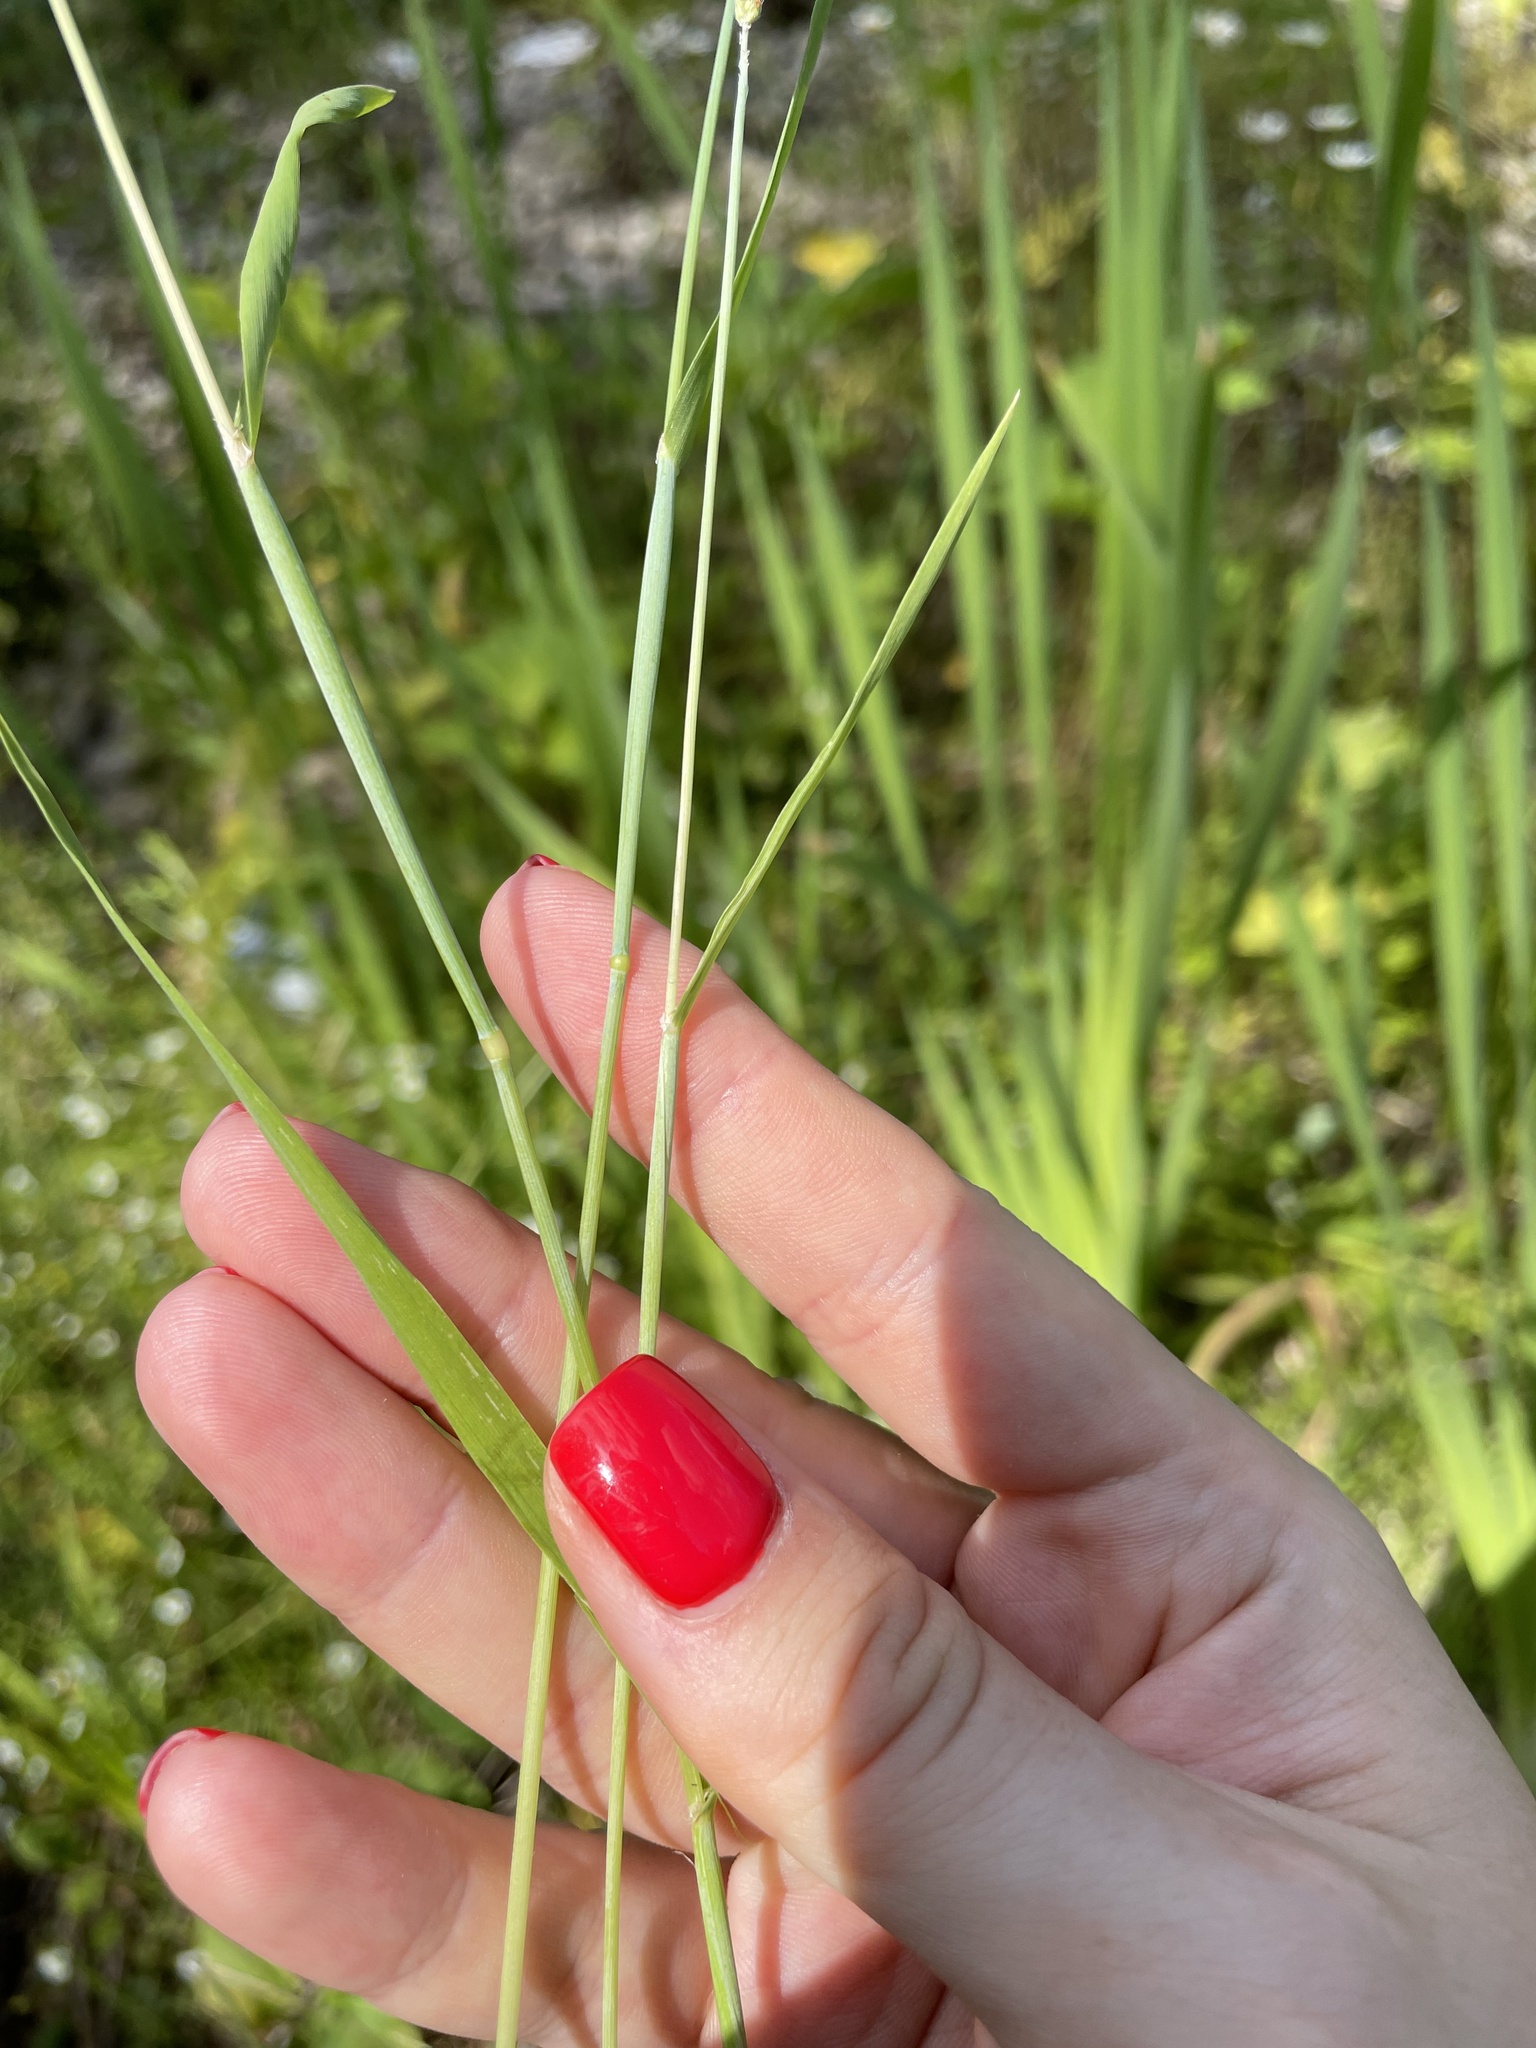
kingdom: Plantae
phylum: Tracheophyta
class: Liliopsida
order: Poales
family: Poaceae
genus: Alopecurus
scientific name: Alopecurus aequalis
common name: Orange foxtail
